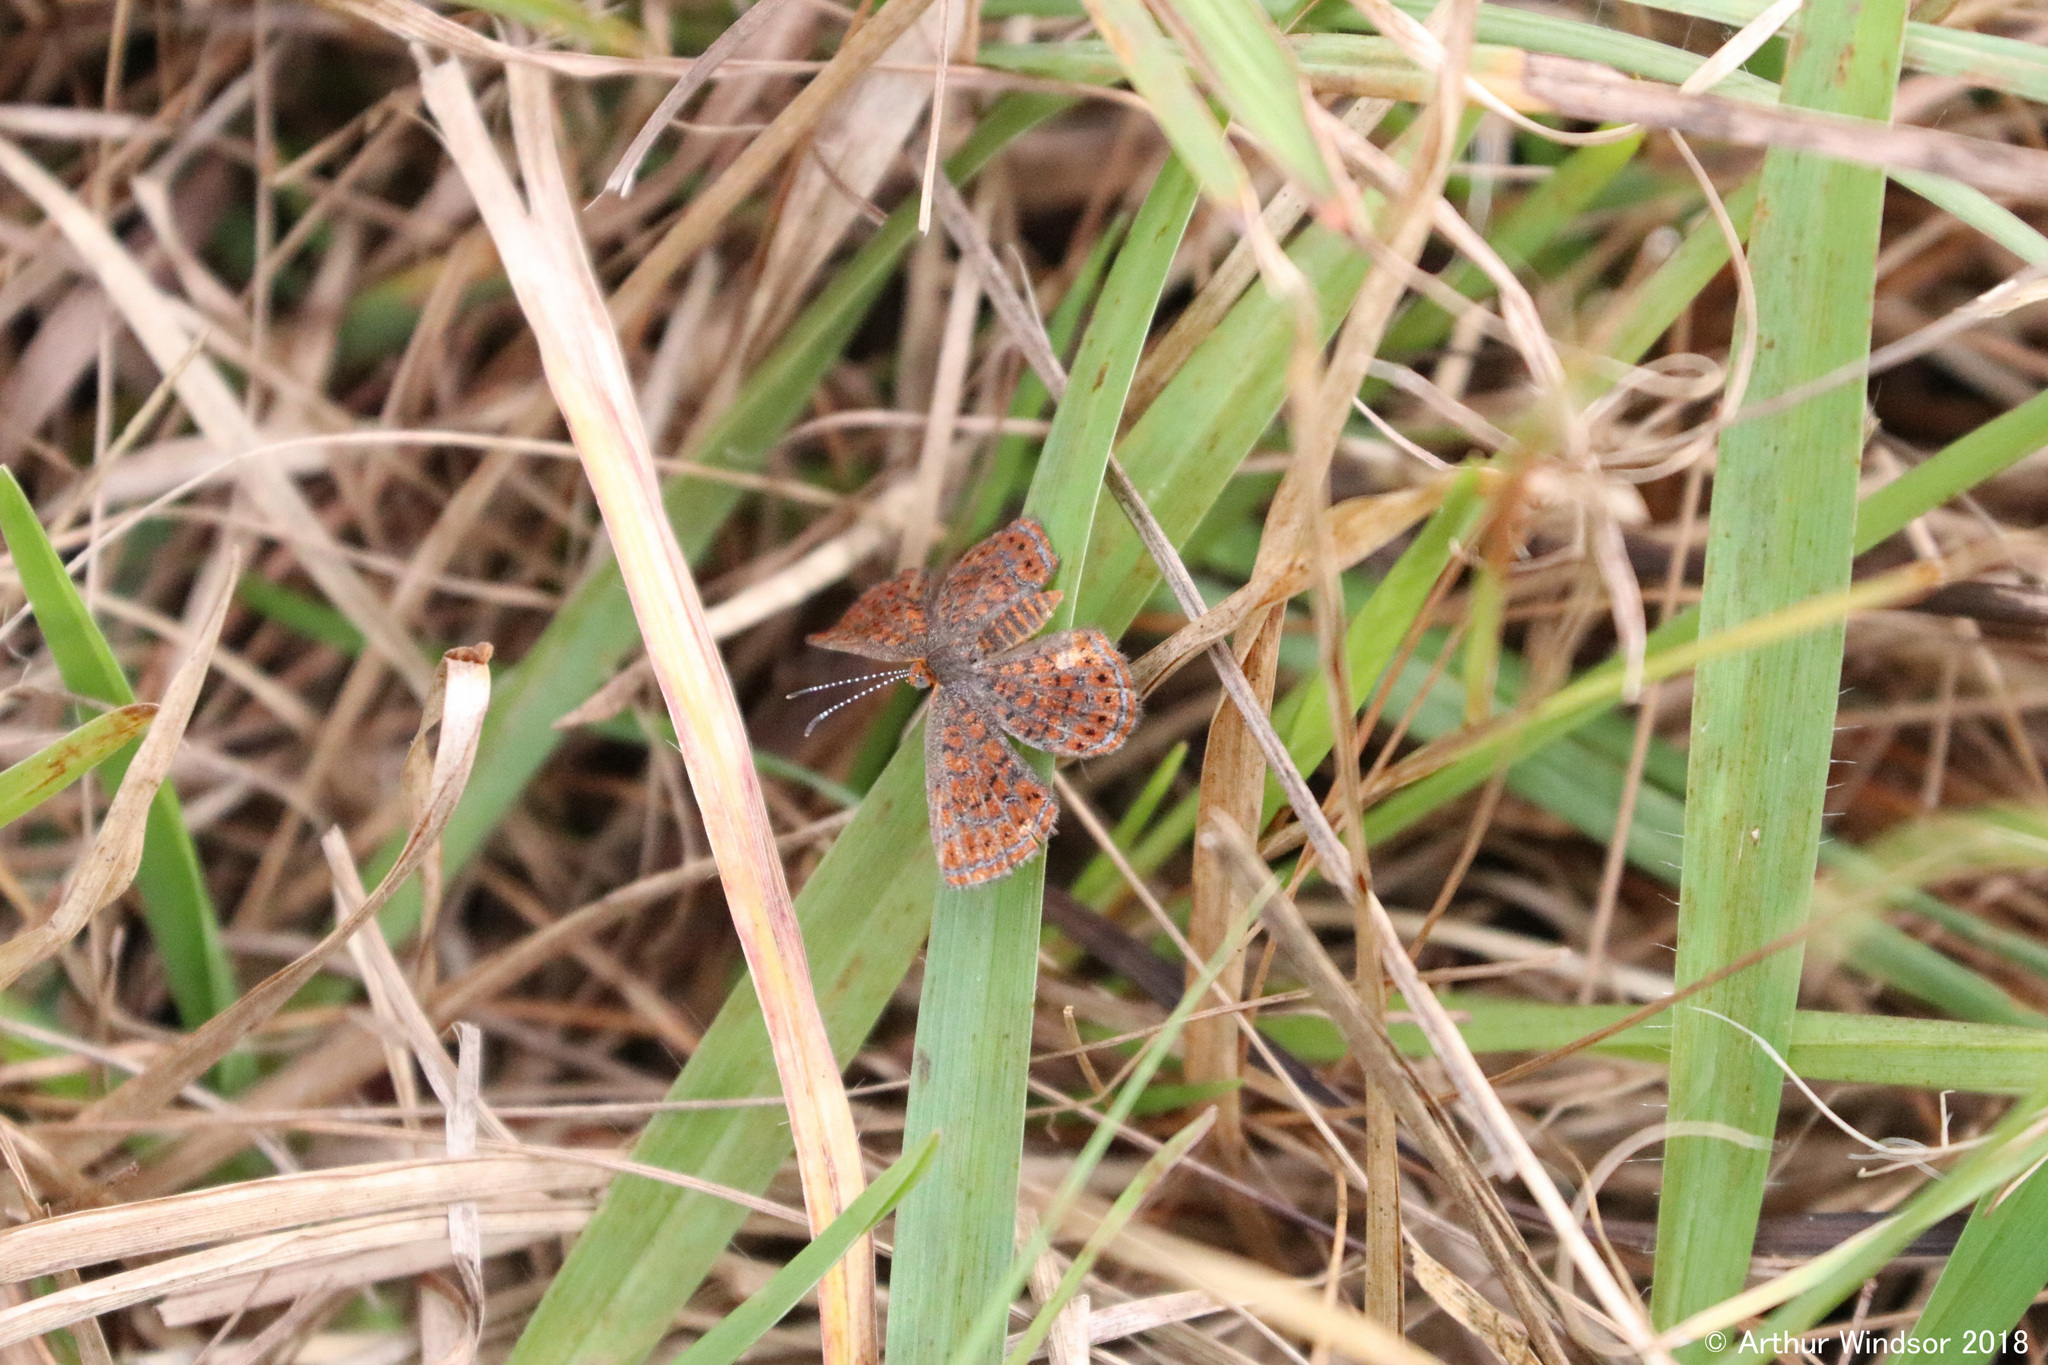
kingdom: Animalia
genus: Calephelis
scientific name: Calephelis virginiensis
